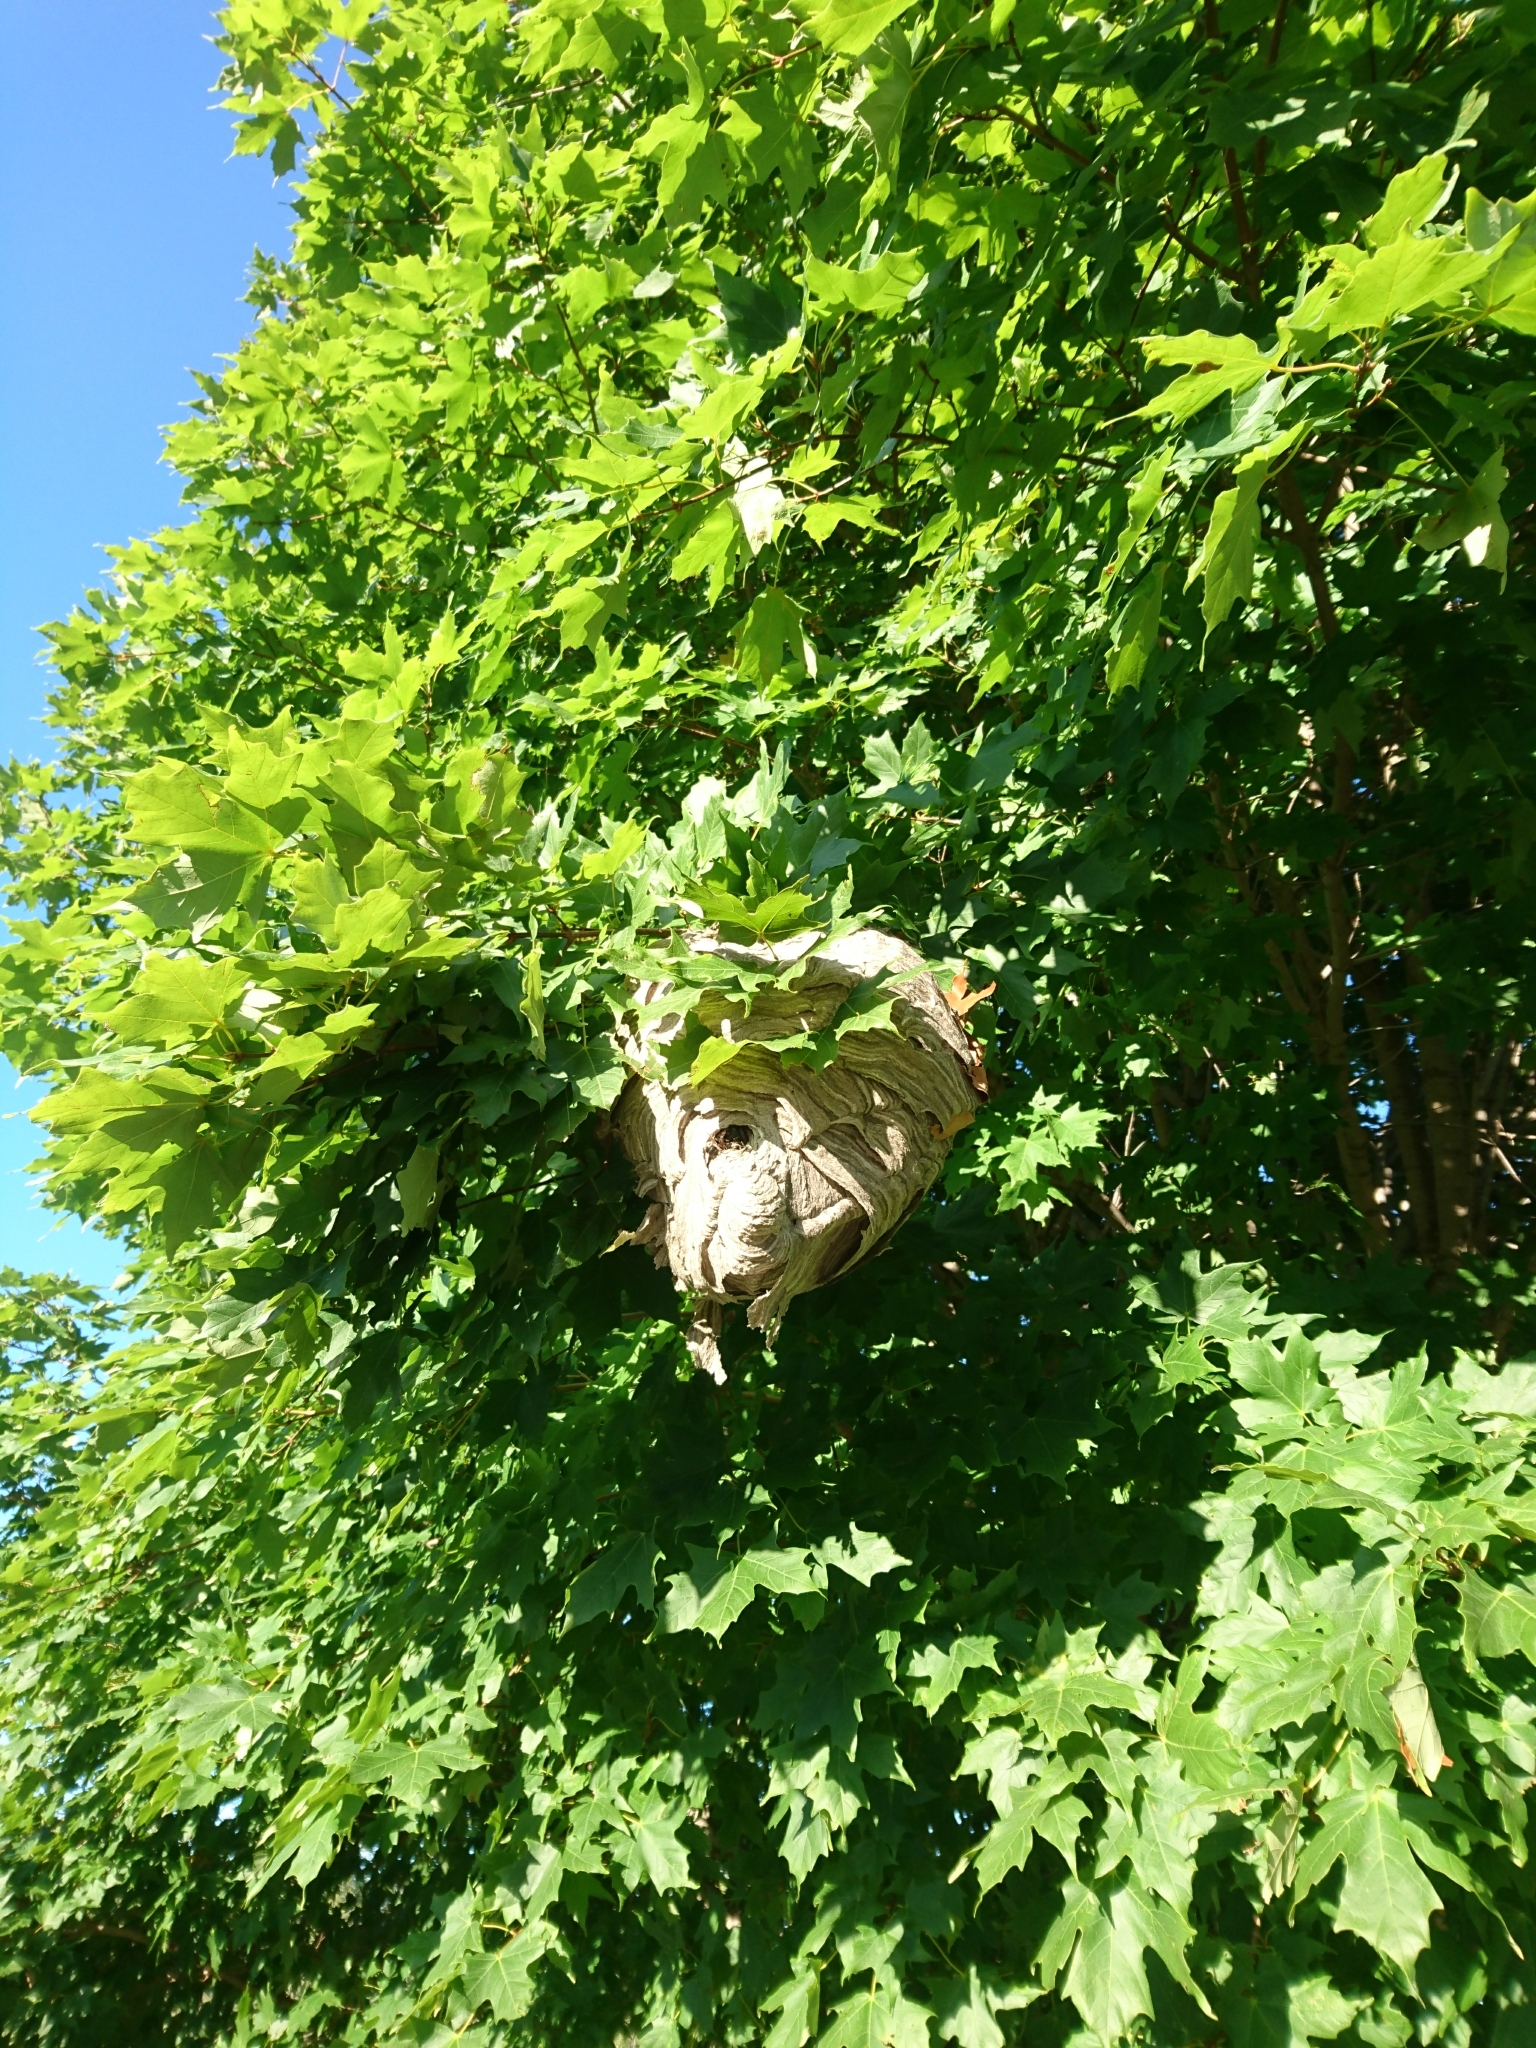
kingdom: Animalia
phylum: Arthropoda
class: Insecta
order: Hymenoptera
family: Vespidae
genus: Dolichovespula
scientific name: Dolichovespula maculata
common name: Bald-faced hornet
